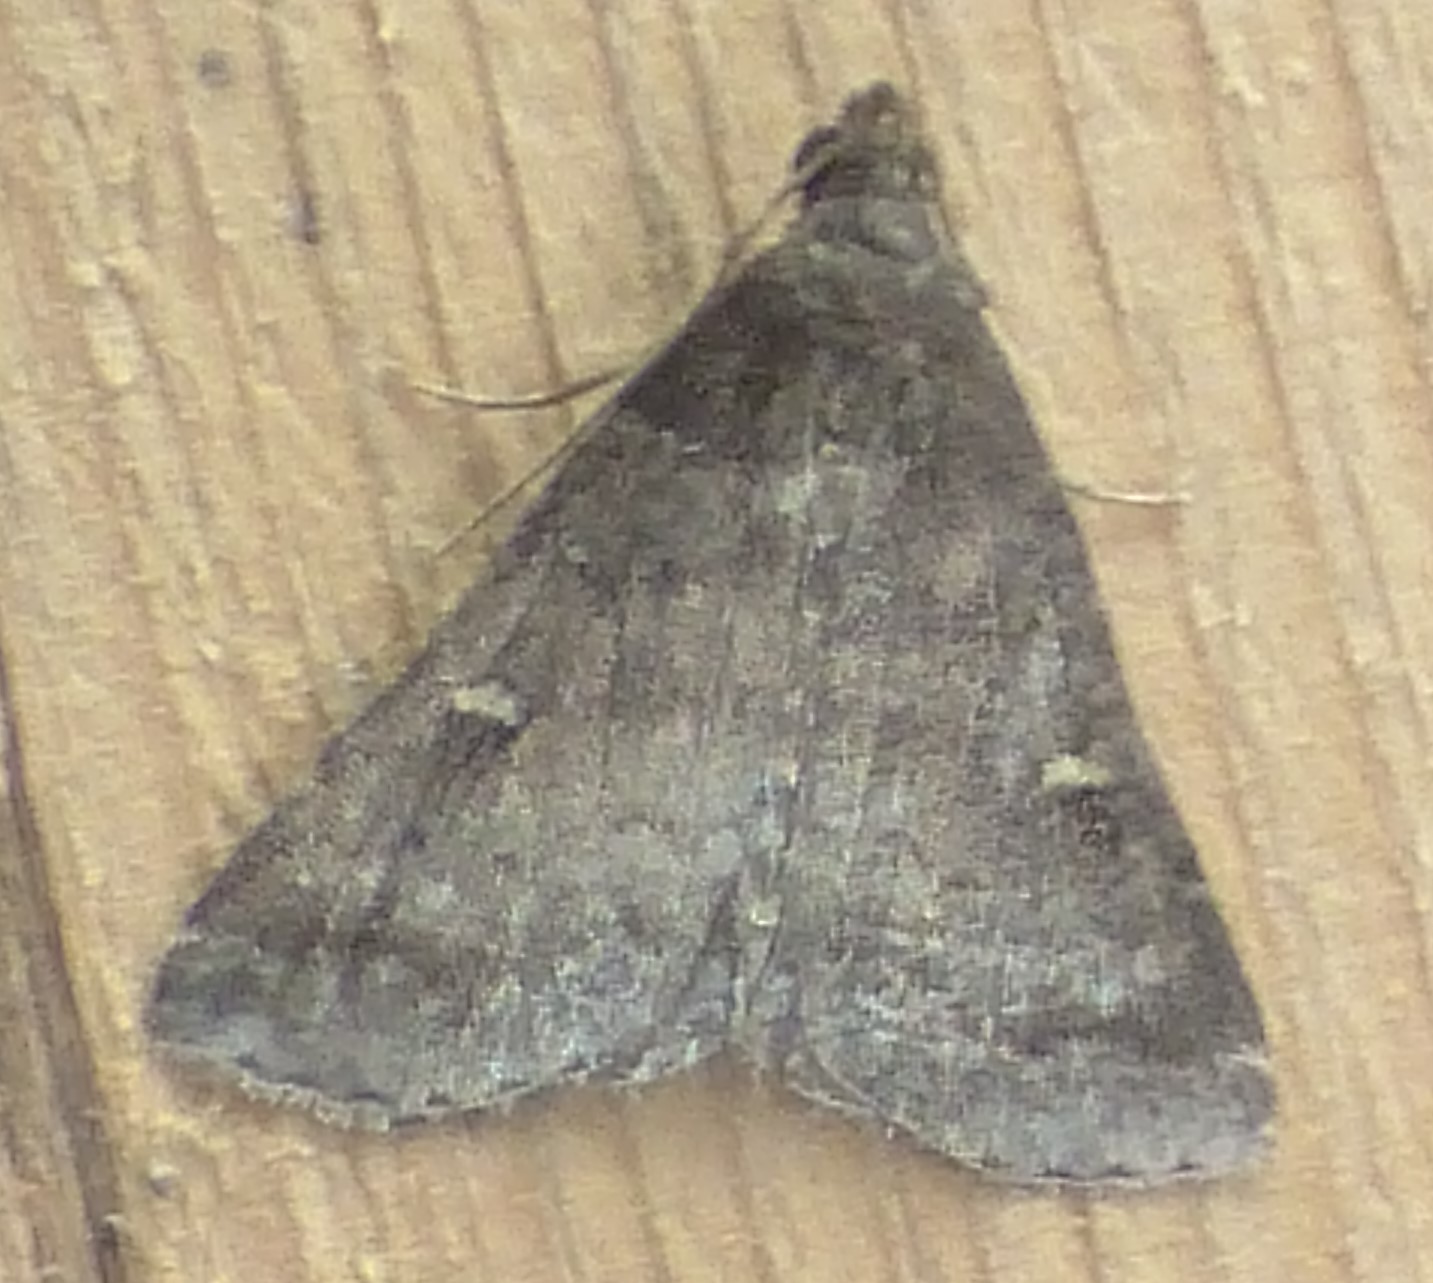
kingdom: Animalia
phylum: Arthropoda
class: Insecta
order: Lepidoptera
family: Erebidae
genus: Tetanolita
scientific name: Tetanolita mynesalis
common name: Smoky tetanolita moth
